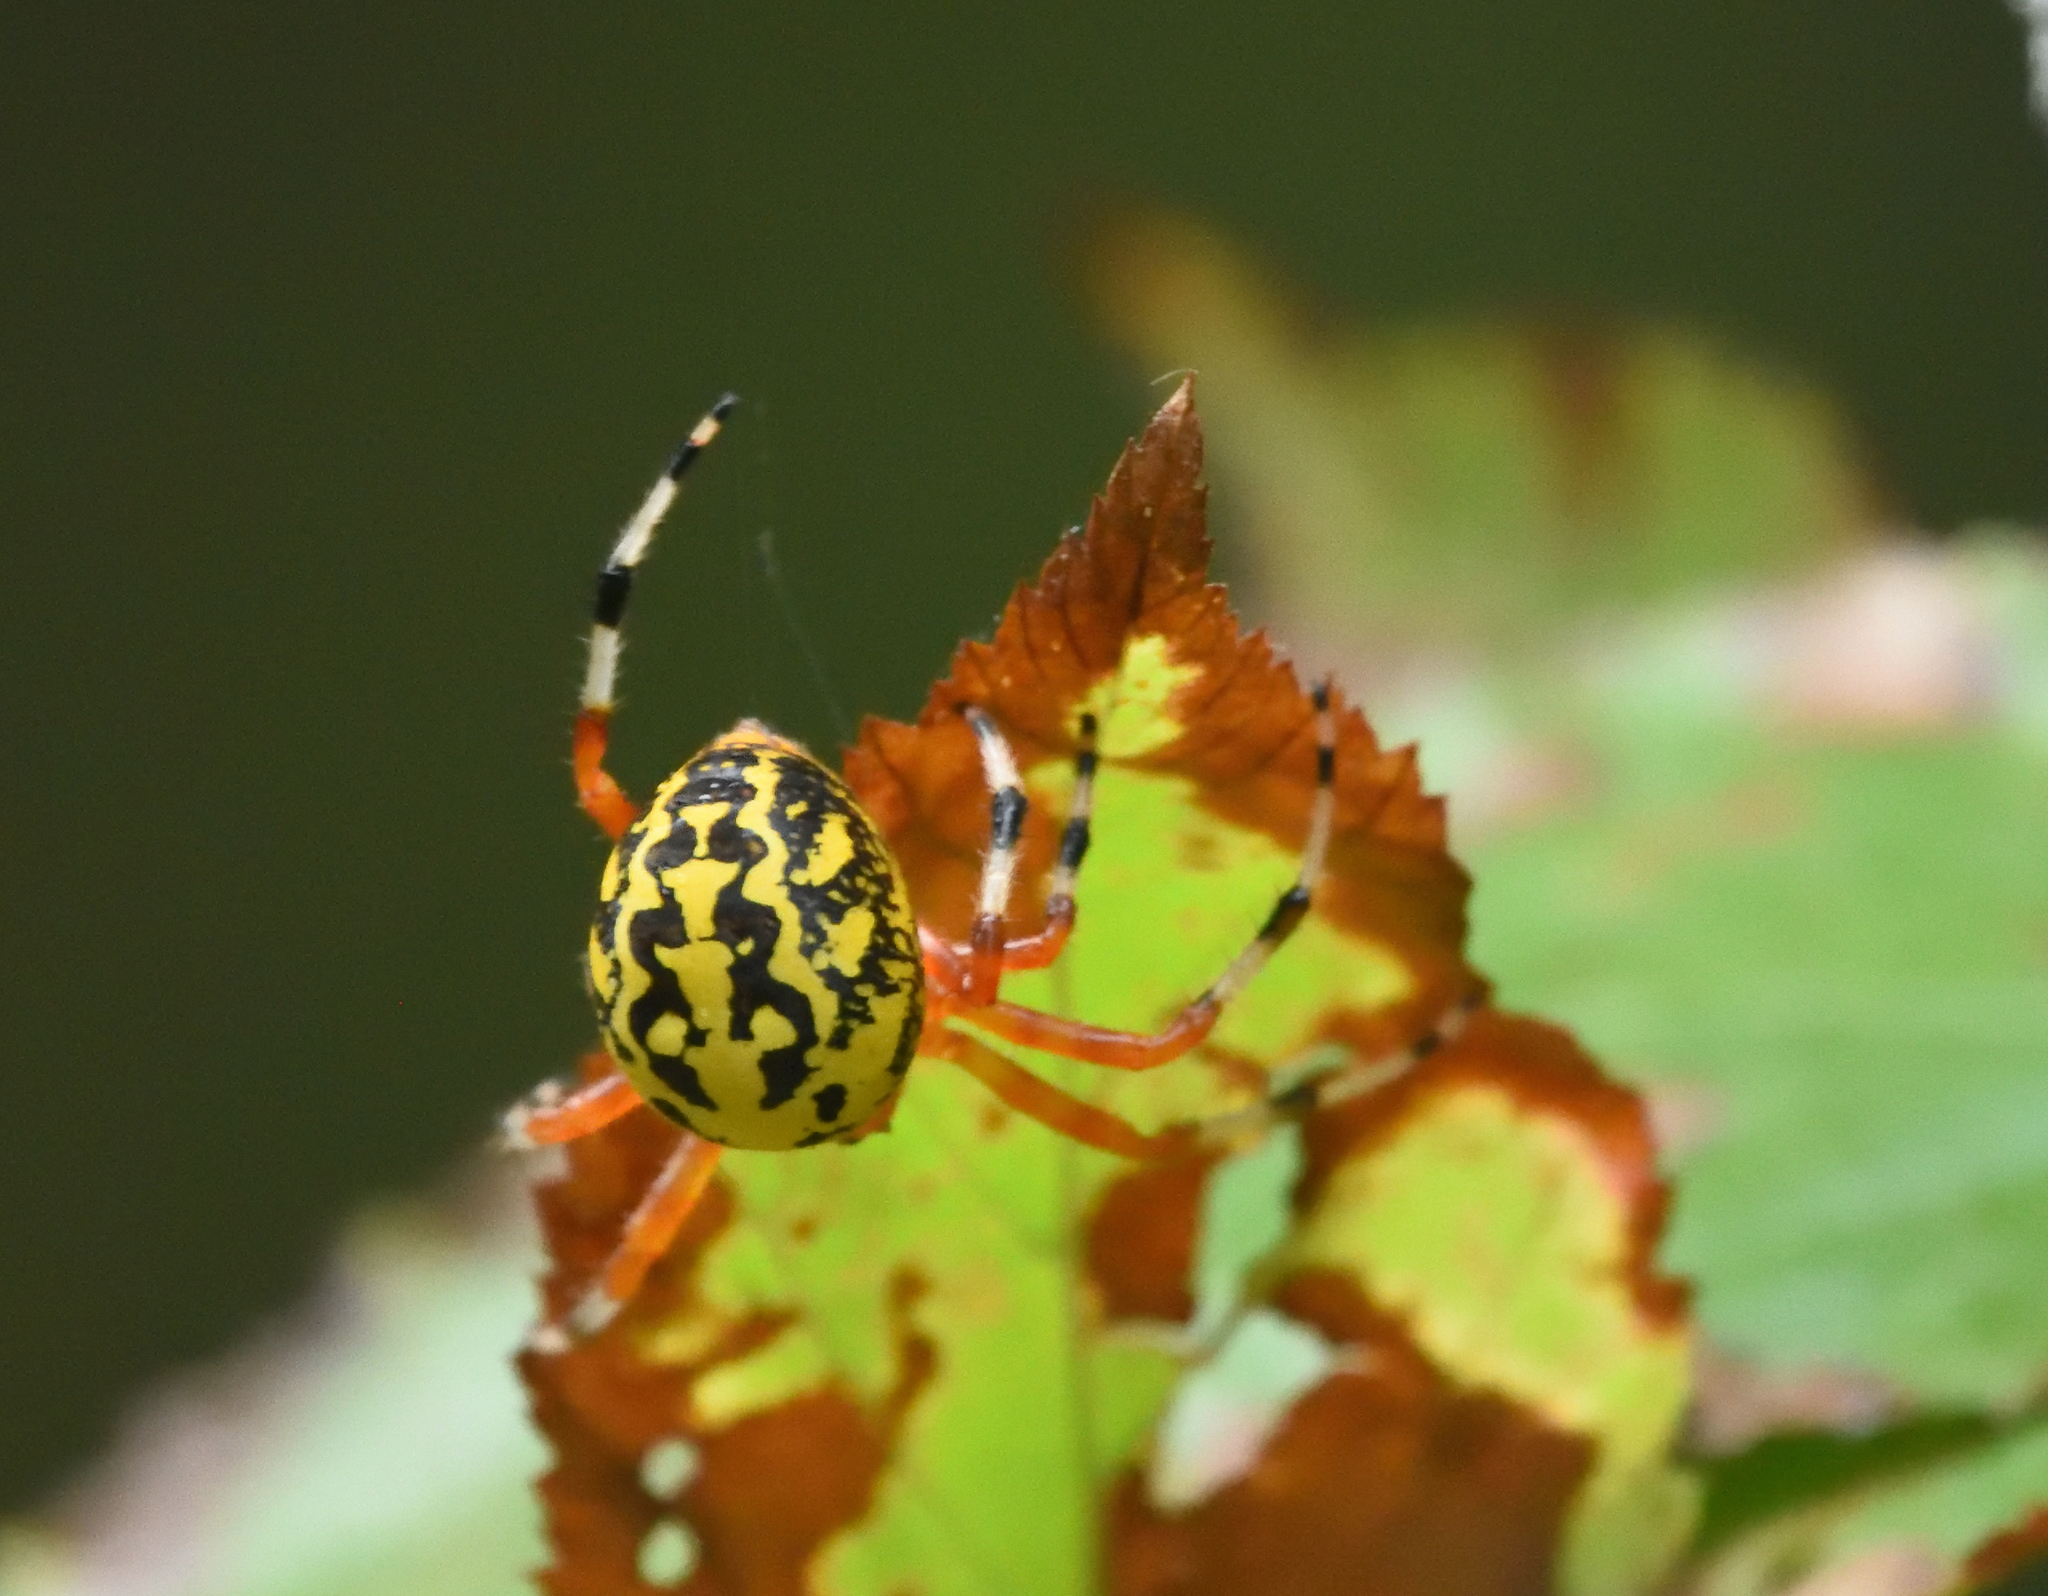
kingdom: Animalia
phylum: Arthropoda
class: Arachnida
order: Araneae
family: Araneidae
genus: Araneus
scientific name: Araneus marmoreus
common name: Marbled orbweaver
